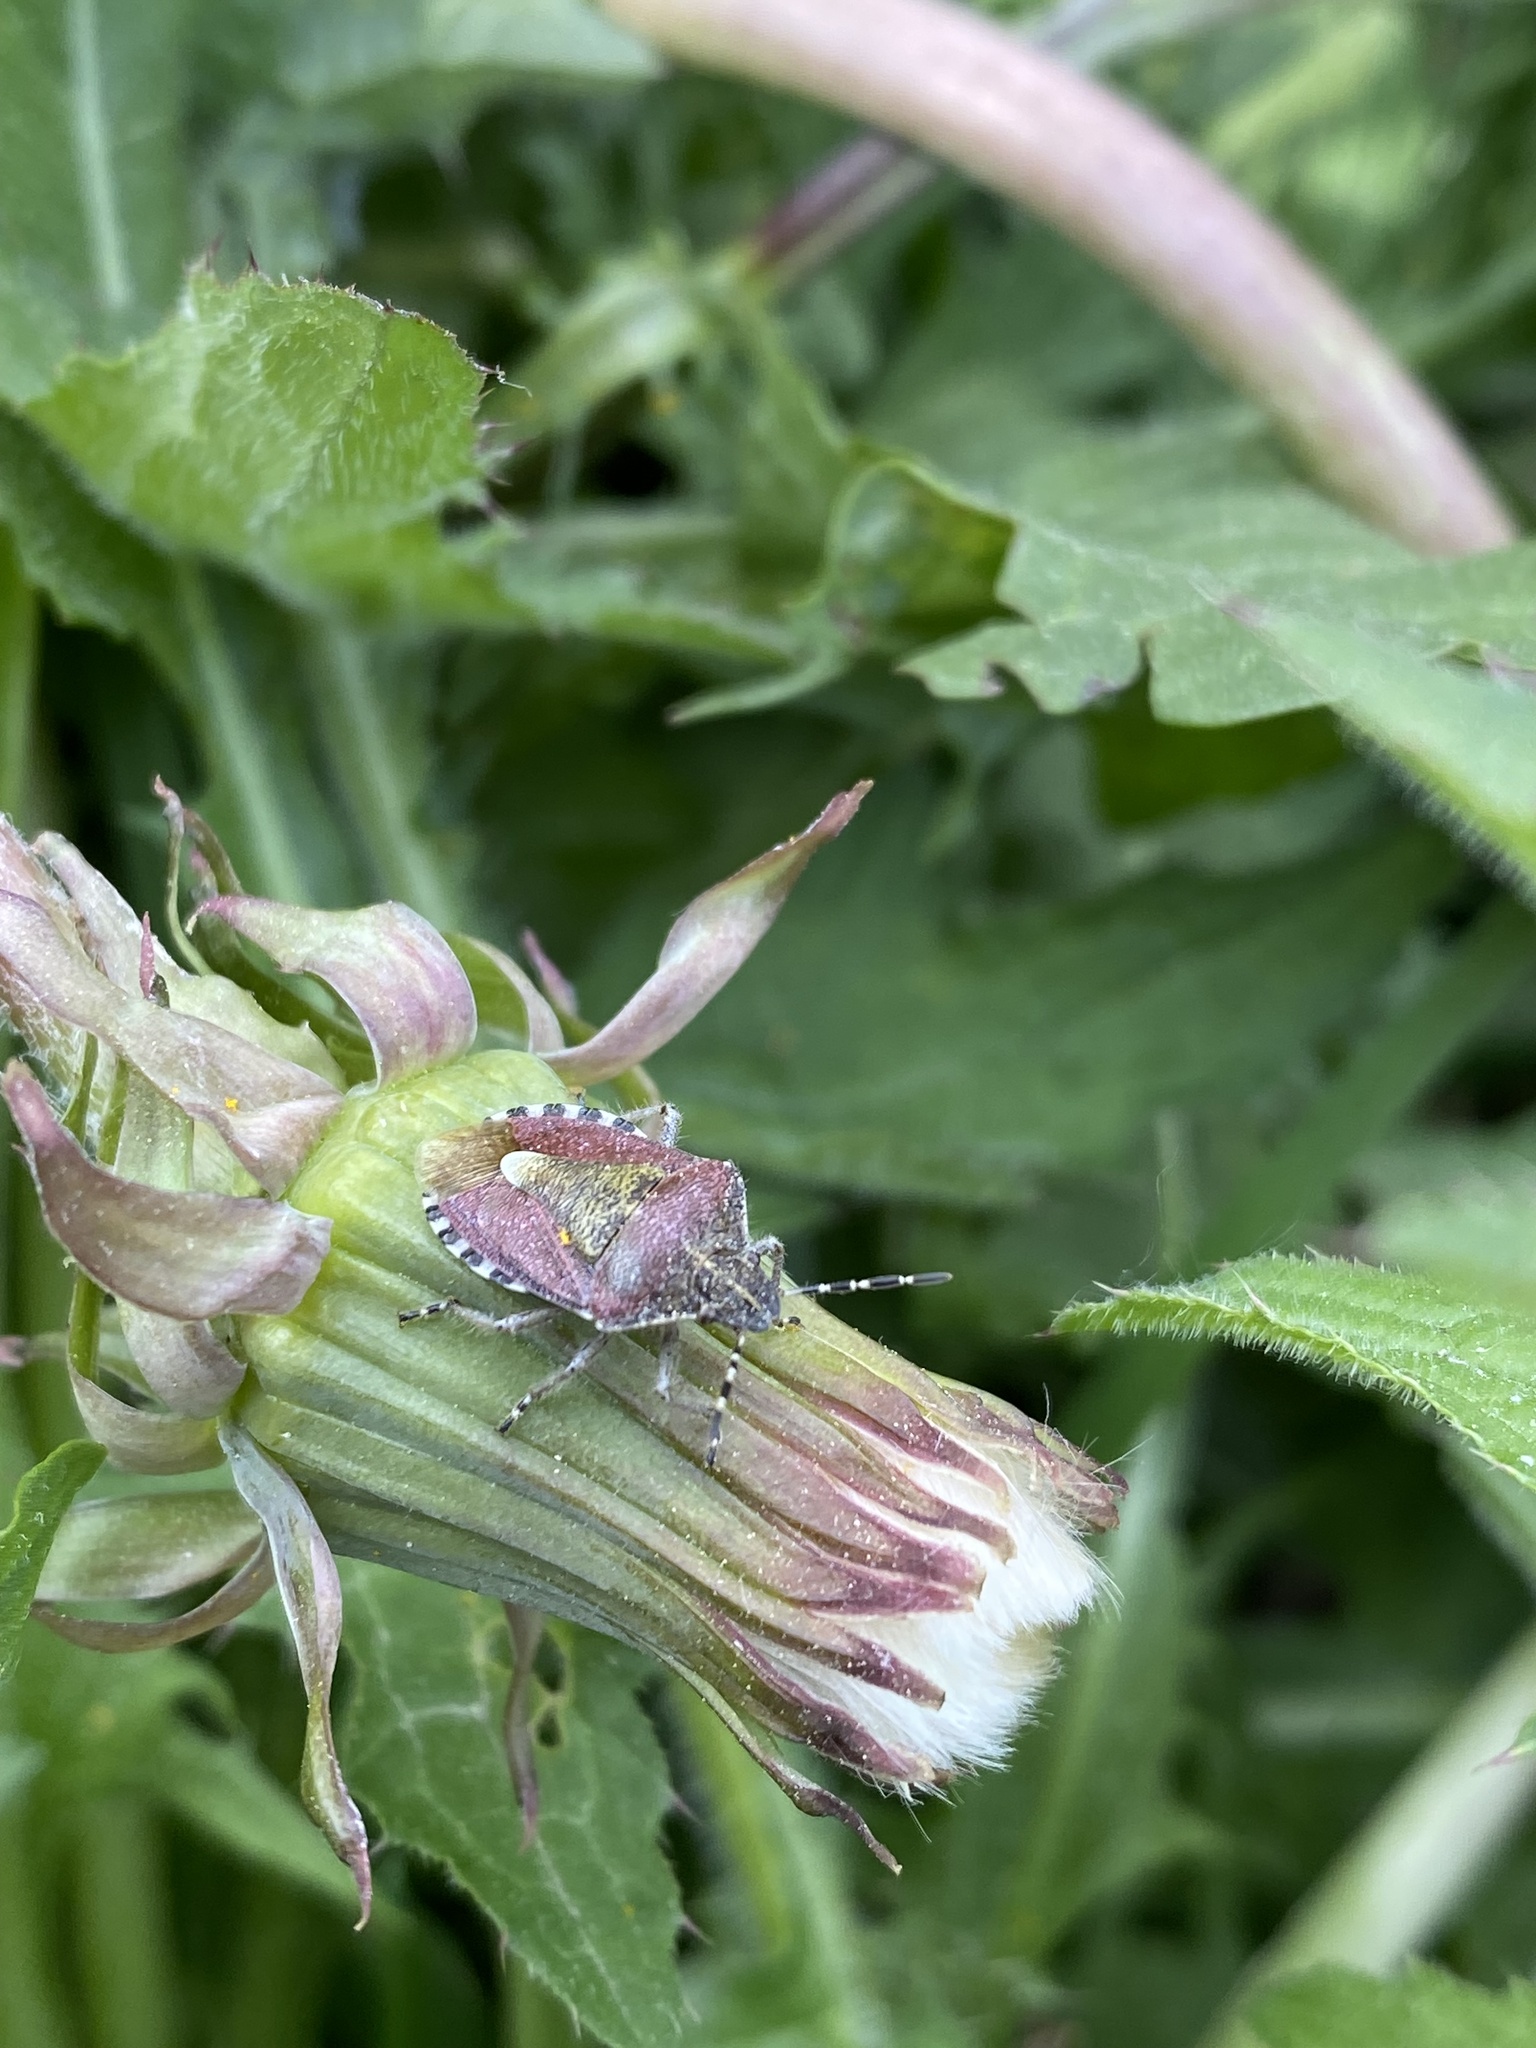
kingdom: Animalia
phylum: Arthropoda
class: Insecta
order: Hemiptera
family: Pentatomidae
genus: Dolycoris
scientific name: Dolycoris baccarum
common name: Sloe bug
